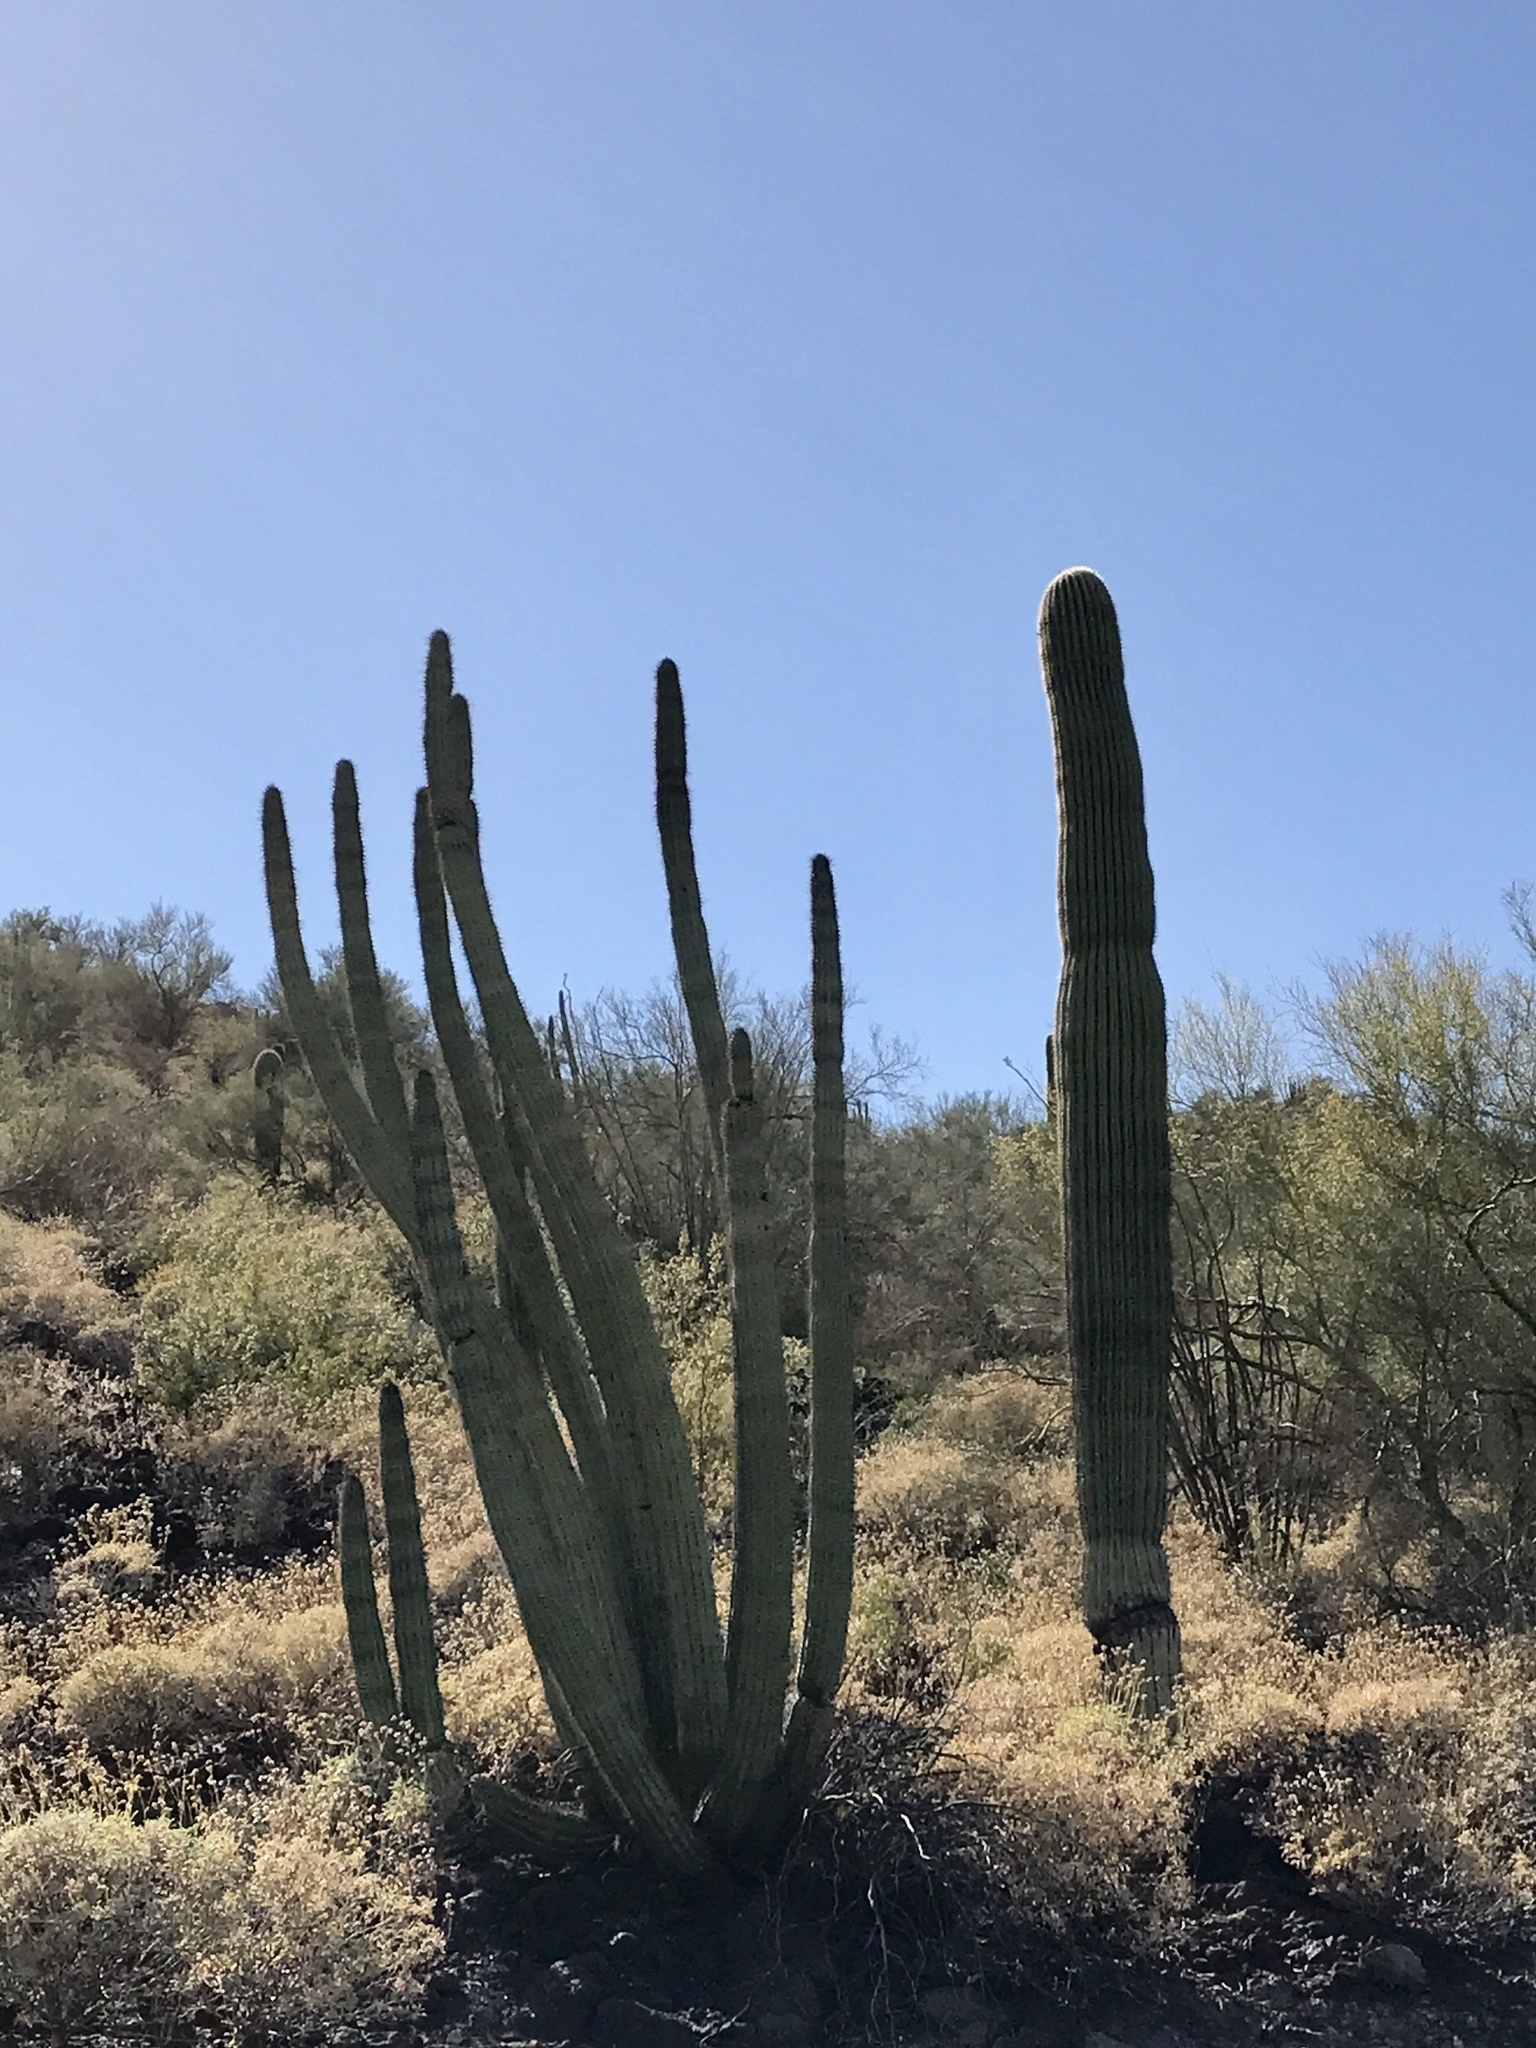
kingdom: Plantae
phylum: Tracheophyta
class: Magnoliopsida
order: Caryophyllales
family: Cactaceae
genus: Carnegiea
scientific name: Carnegiea gigantea
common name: Saguaro
